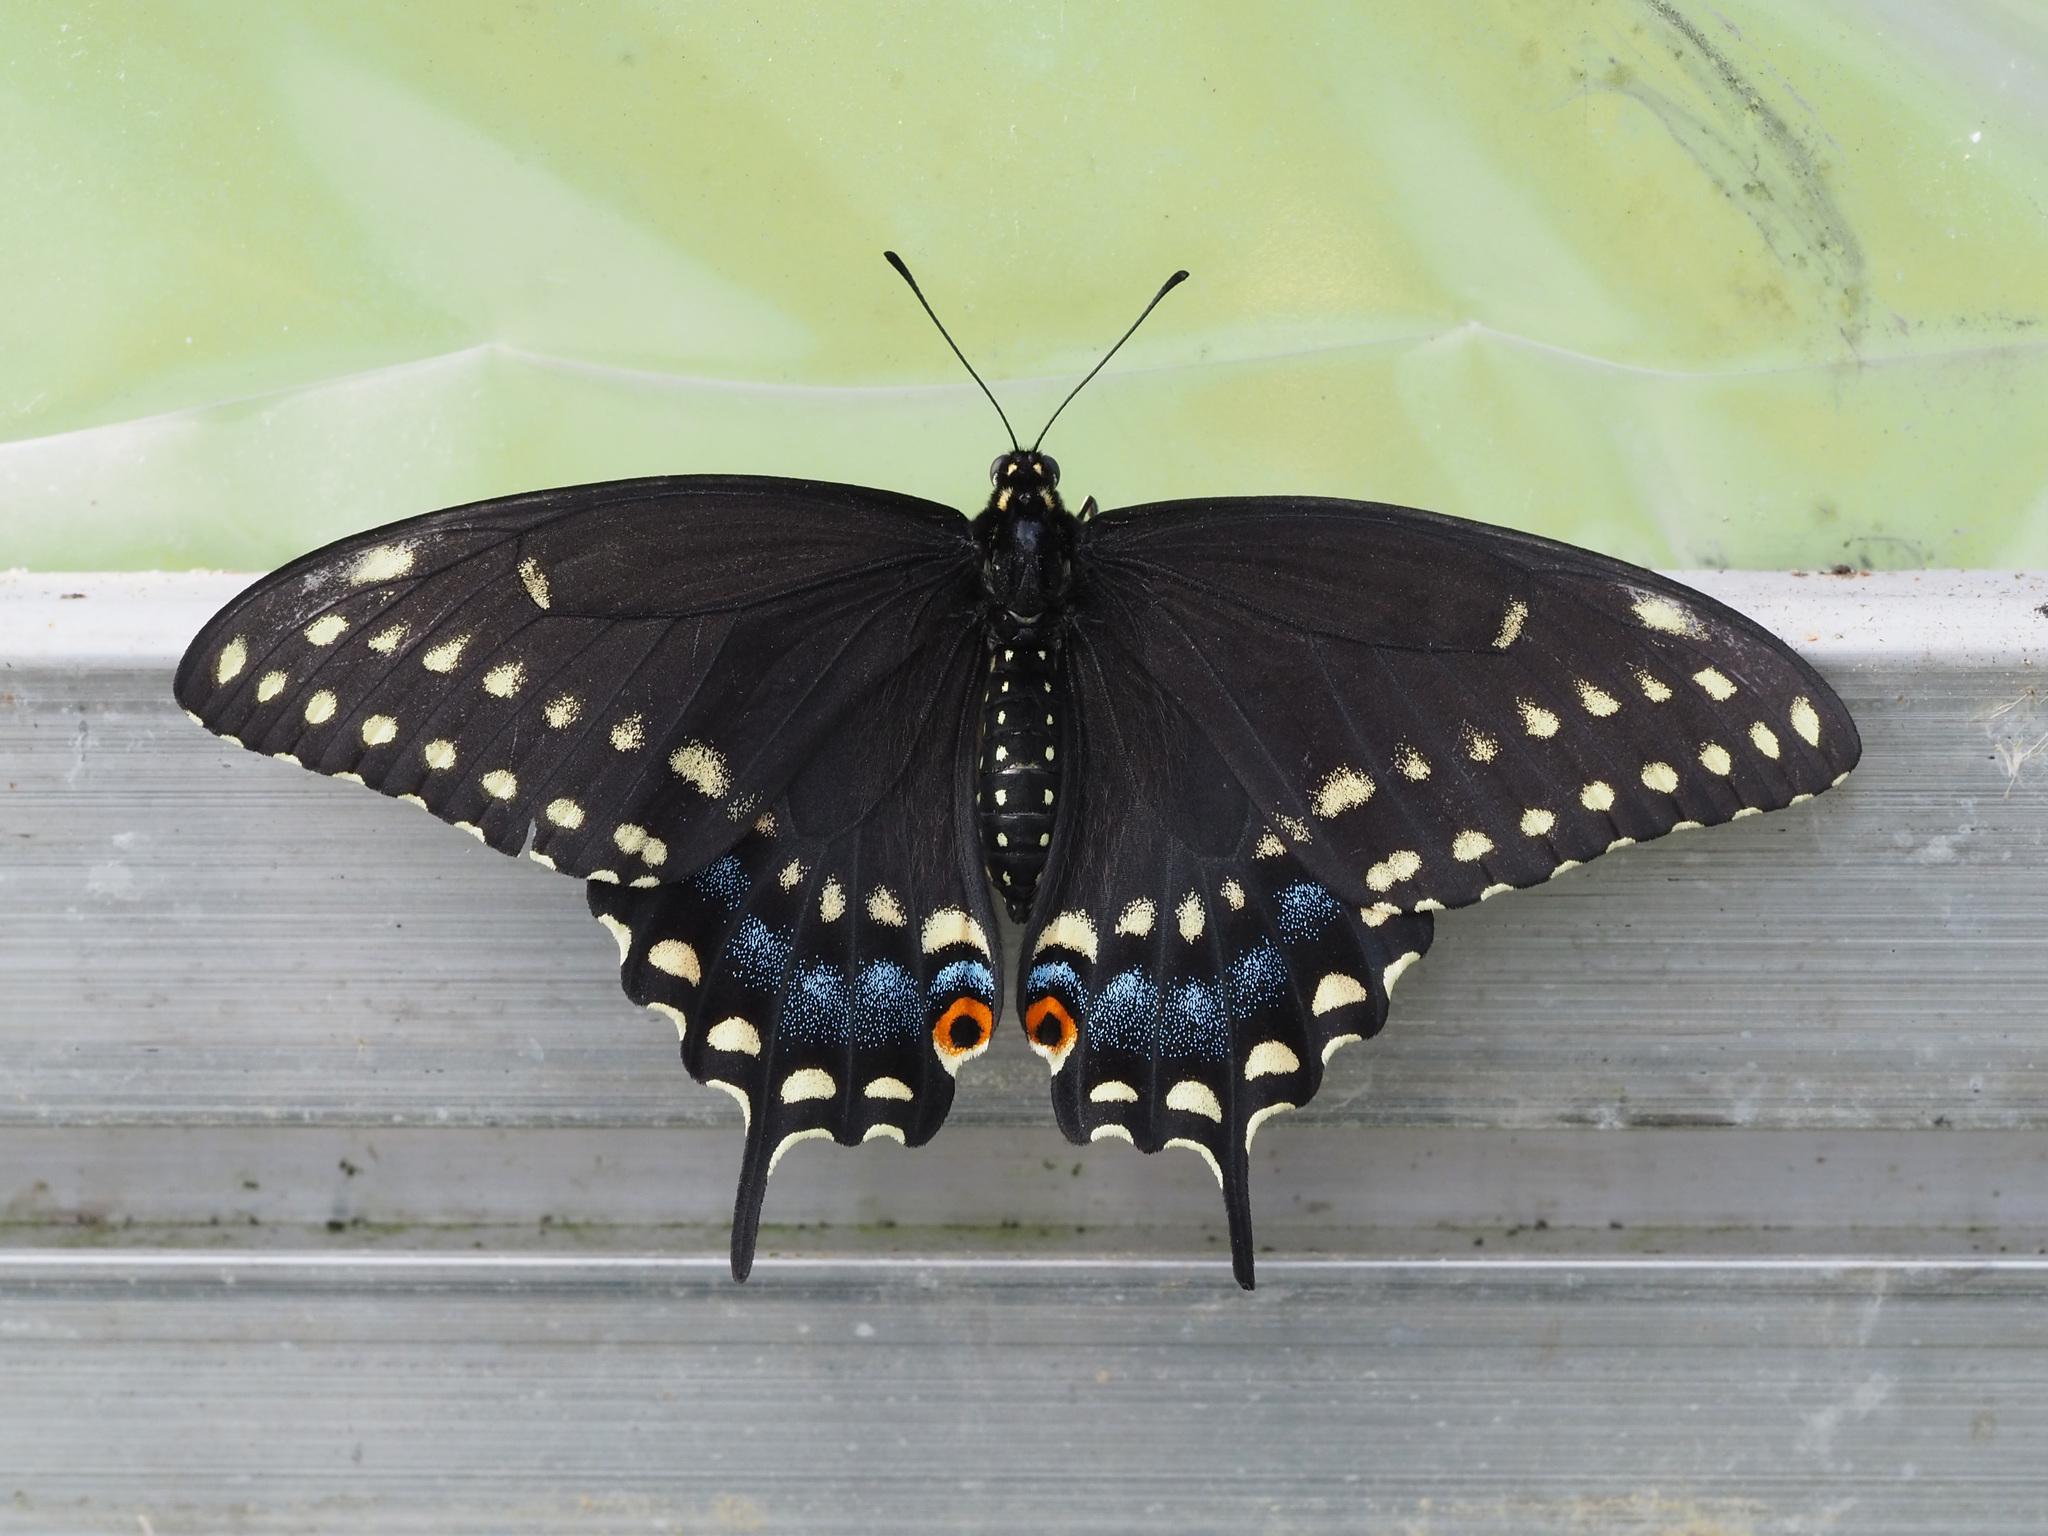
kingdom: Animalia
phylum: Arthropoda
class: Insecta
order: Lepidoptera
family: Papilionidae
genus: Papilio
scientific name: Papilio polyxenes
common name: Black swallowtail
